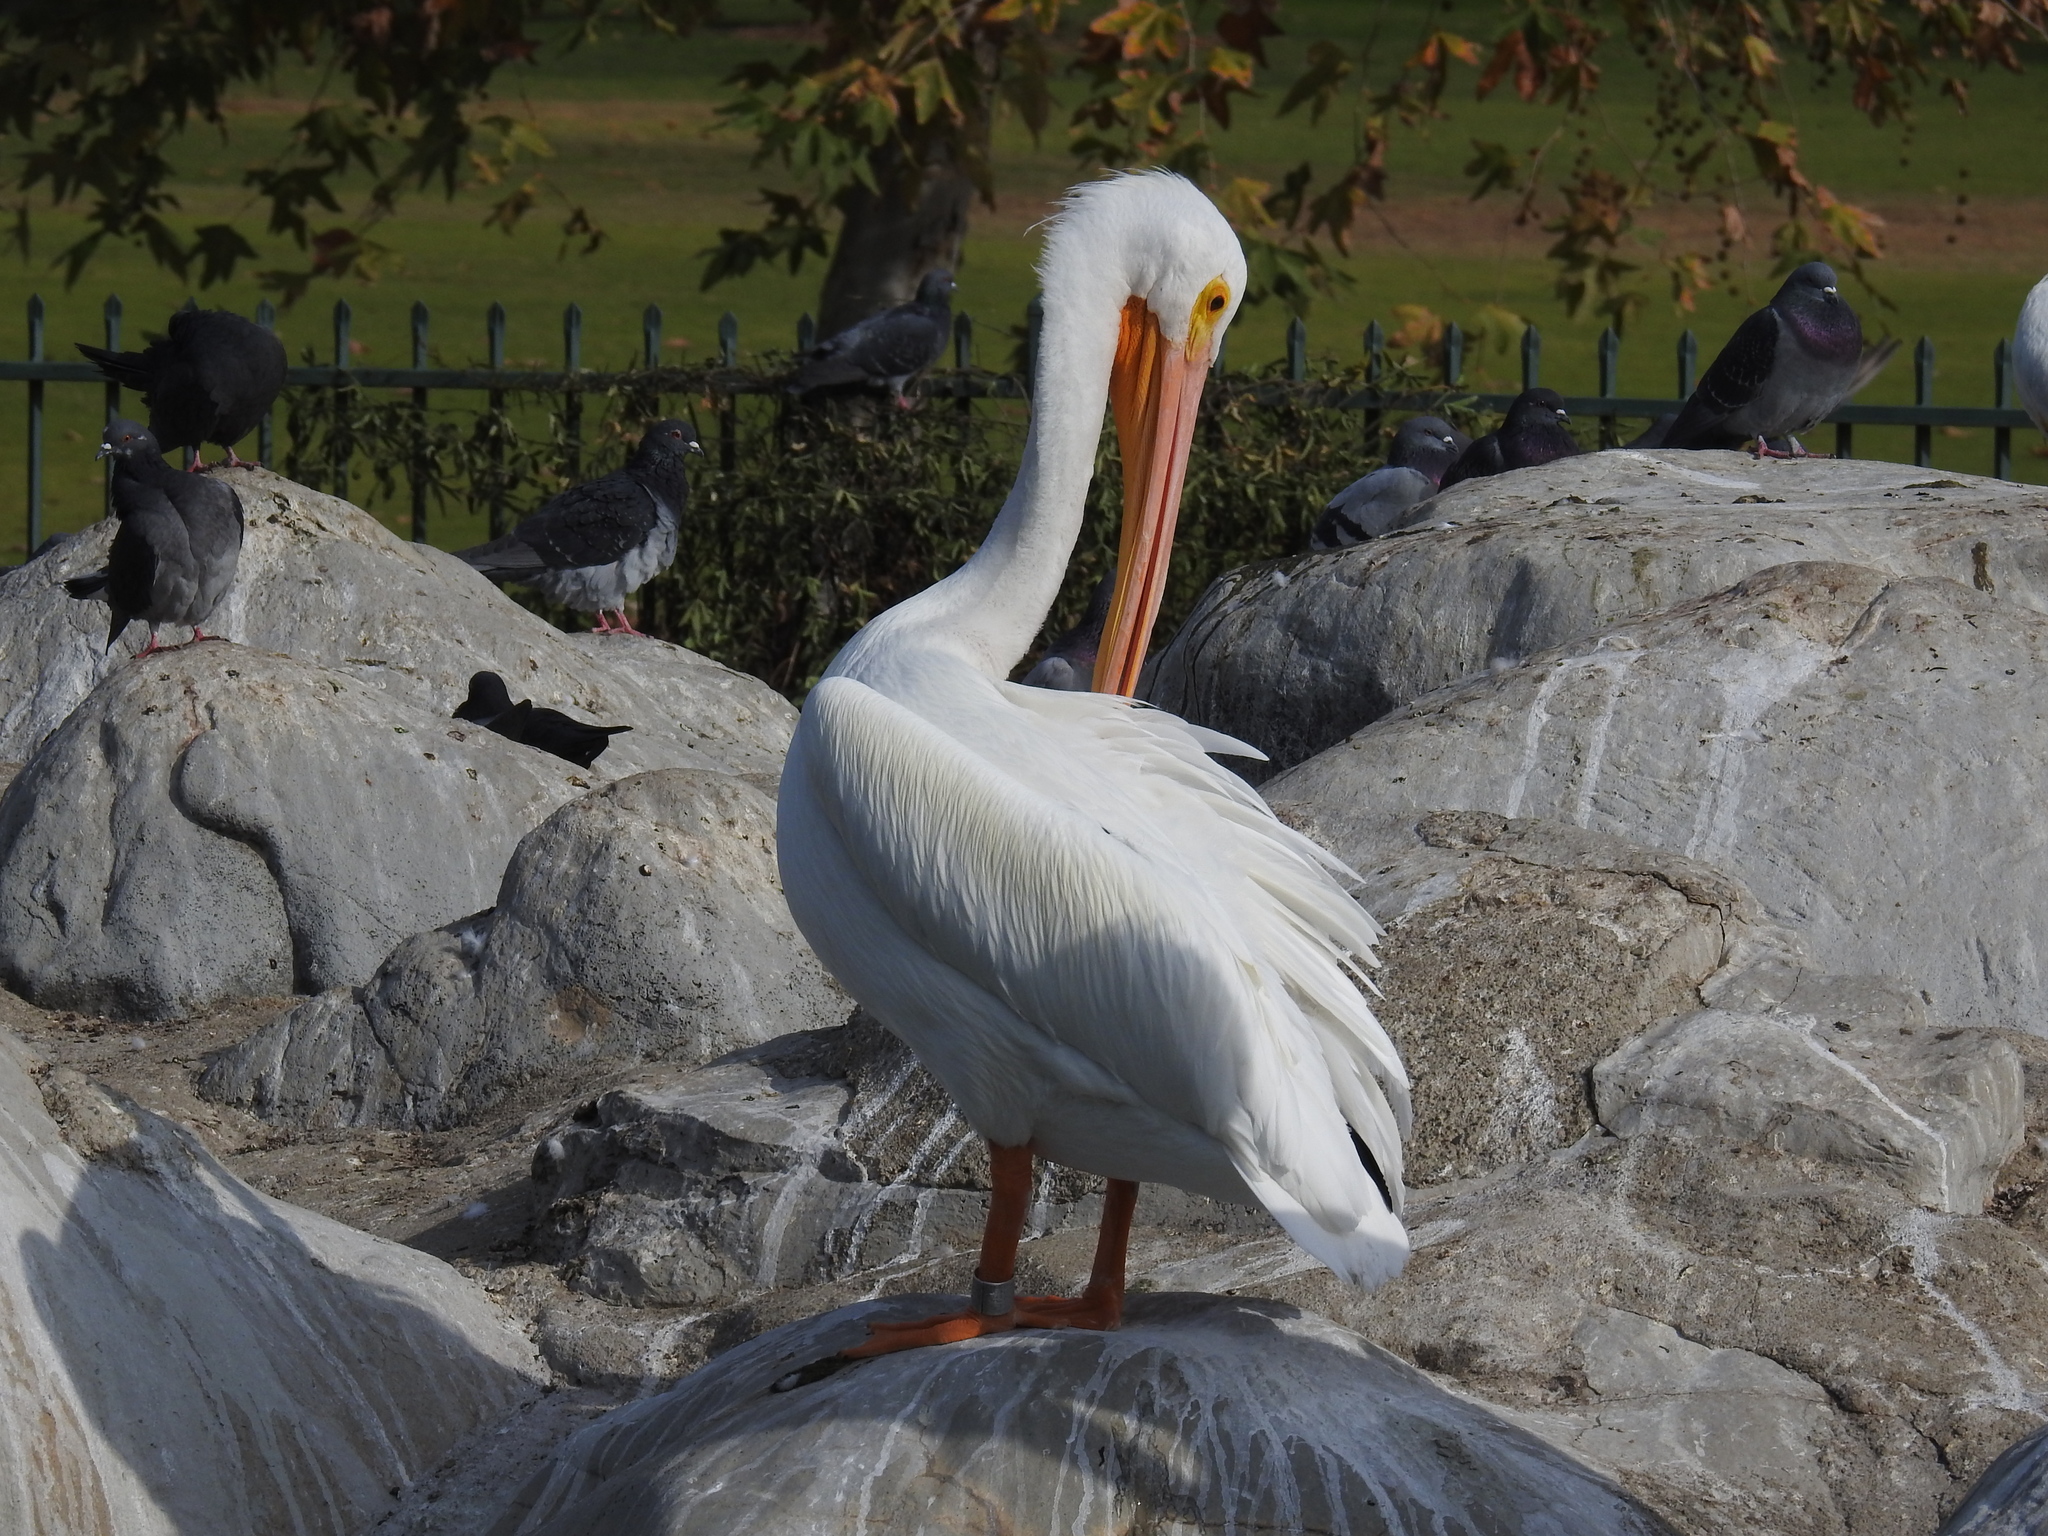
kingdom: Animalia
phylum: Chordata
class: Aves
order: Pelecaniformes
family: Pelecanidae
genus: Pelecanus
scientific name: Pelecanus erythrorhynchos
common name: American white pelican
